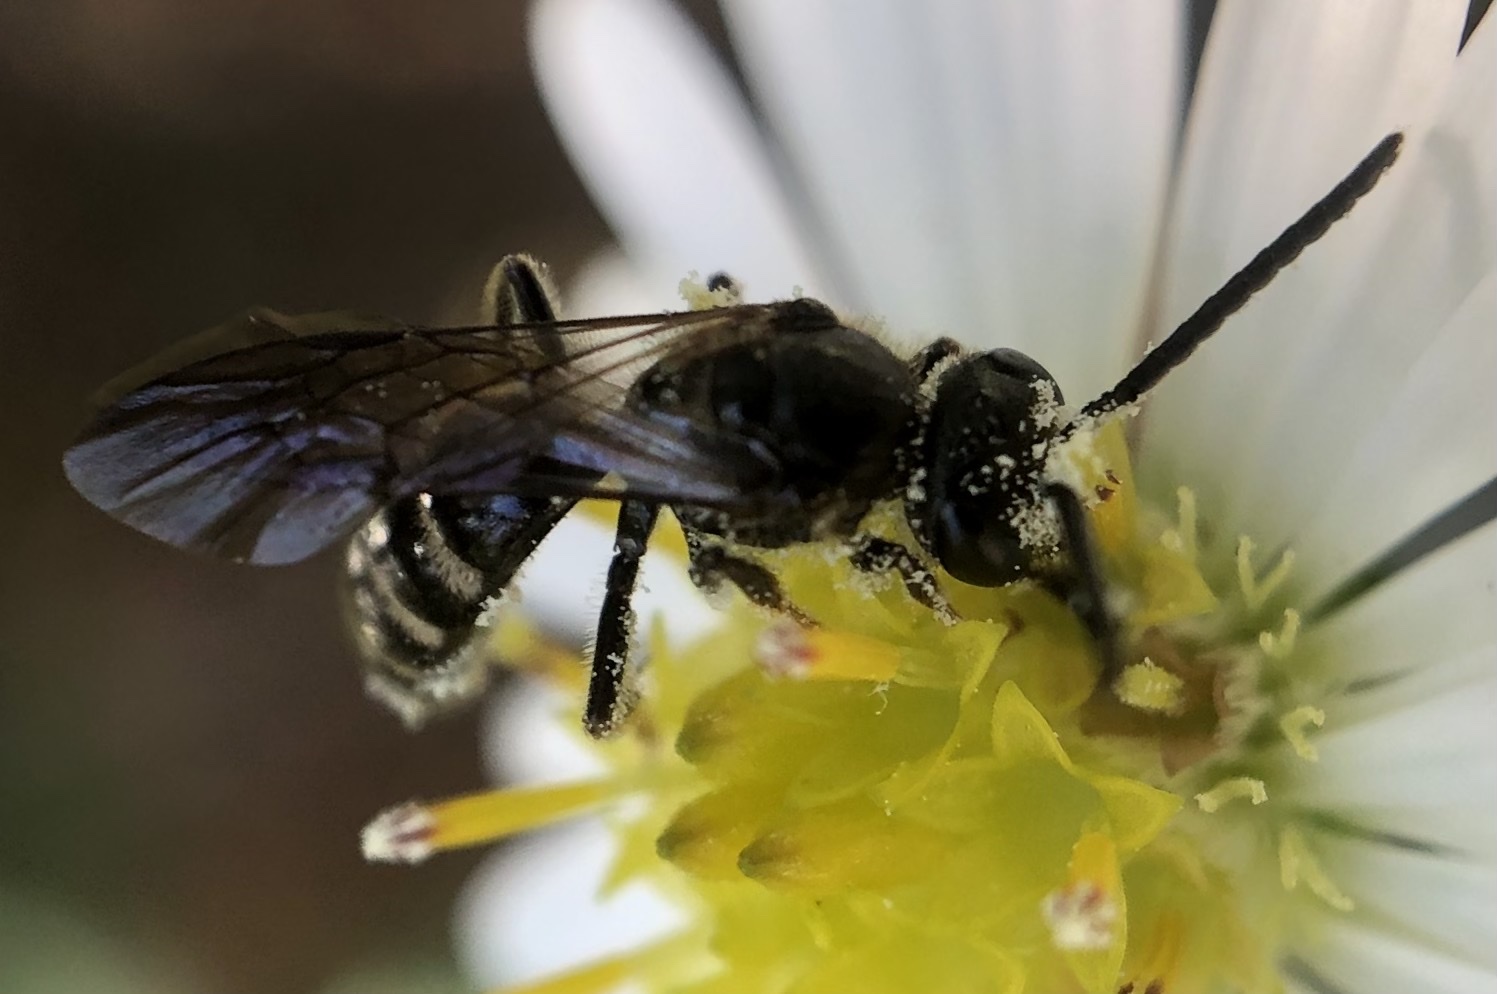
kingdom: Animalia
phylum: Arthropoda
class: Insecta
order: Hymenoptera
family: Halictidae
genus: Lasioglossum
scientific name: Lasioglossum fuscipenne
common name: Brown-winged sweat bee
